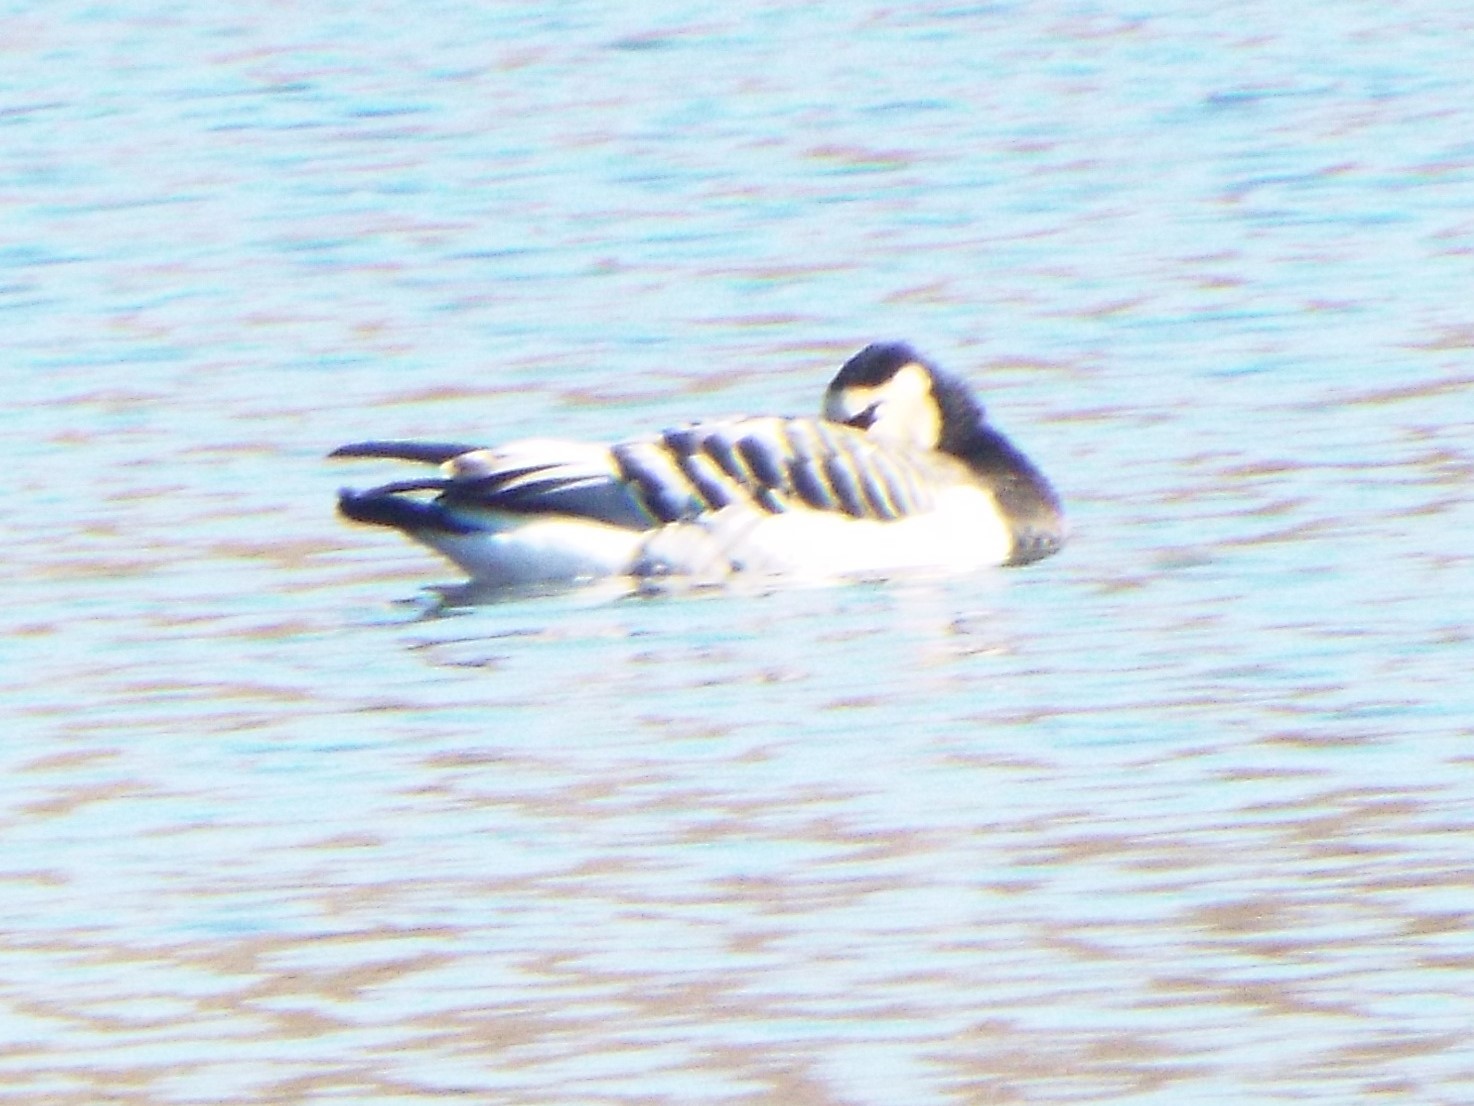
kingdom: Animalia
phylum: Chordata
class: Aves
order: Anseriformes
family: Anatidae
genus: Branta
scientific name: Branta leucopsis
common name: Barnacle goose
